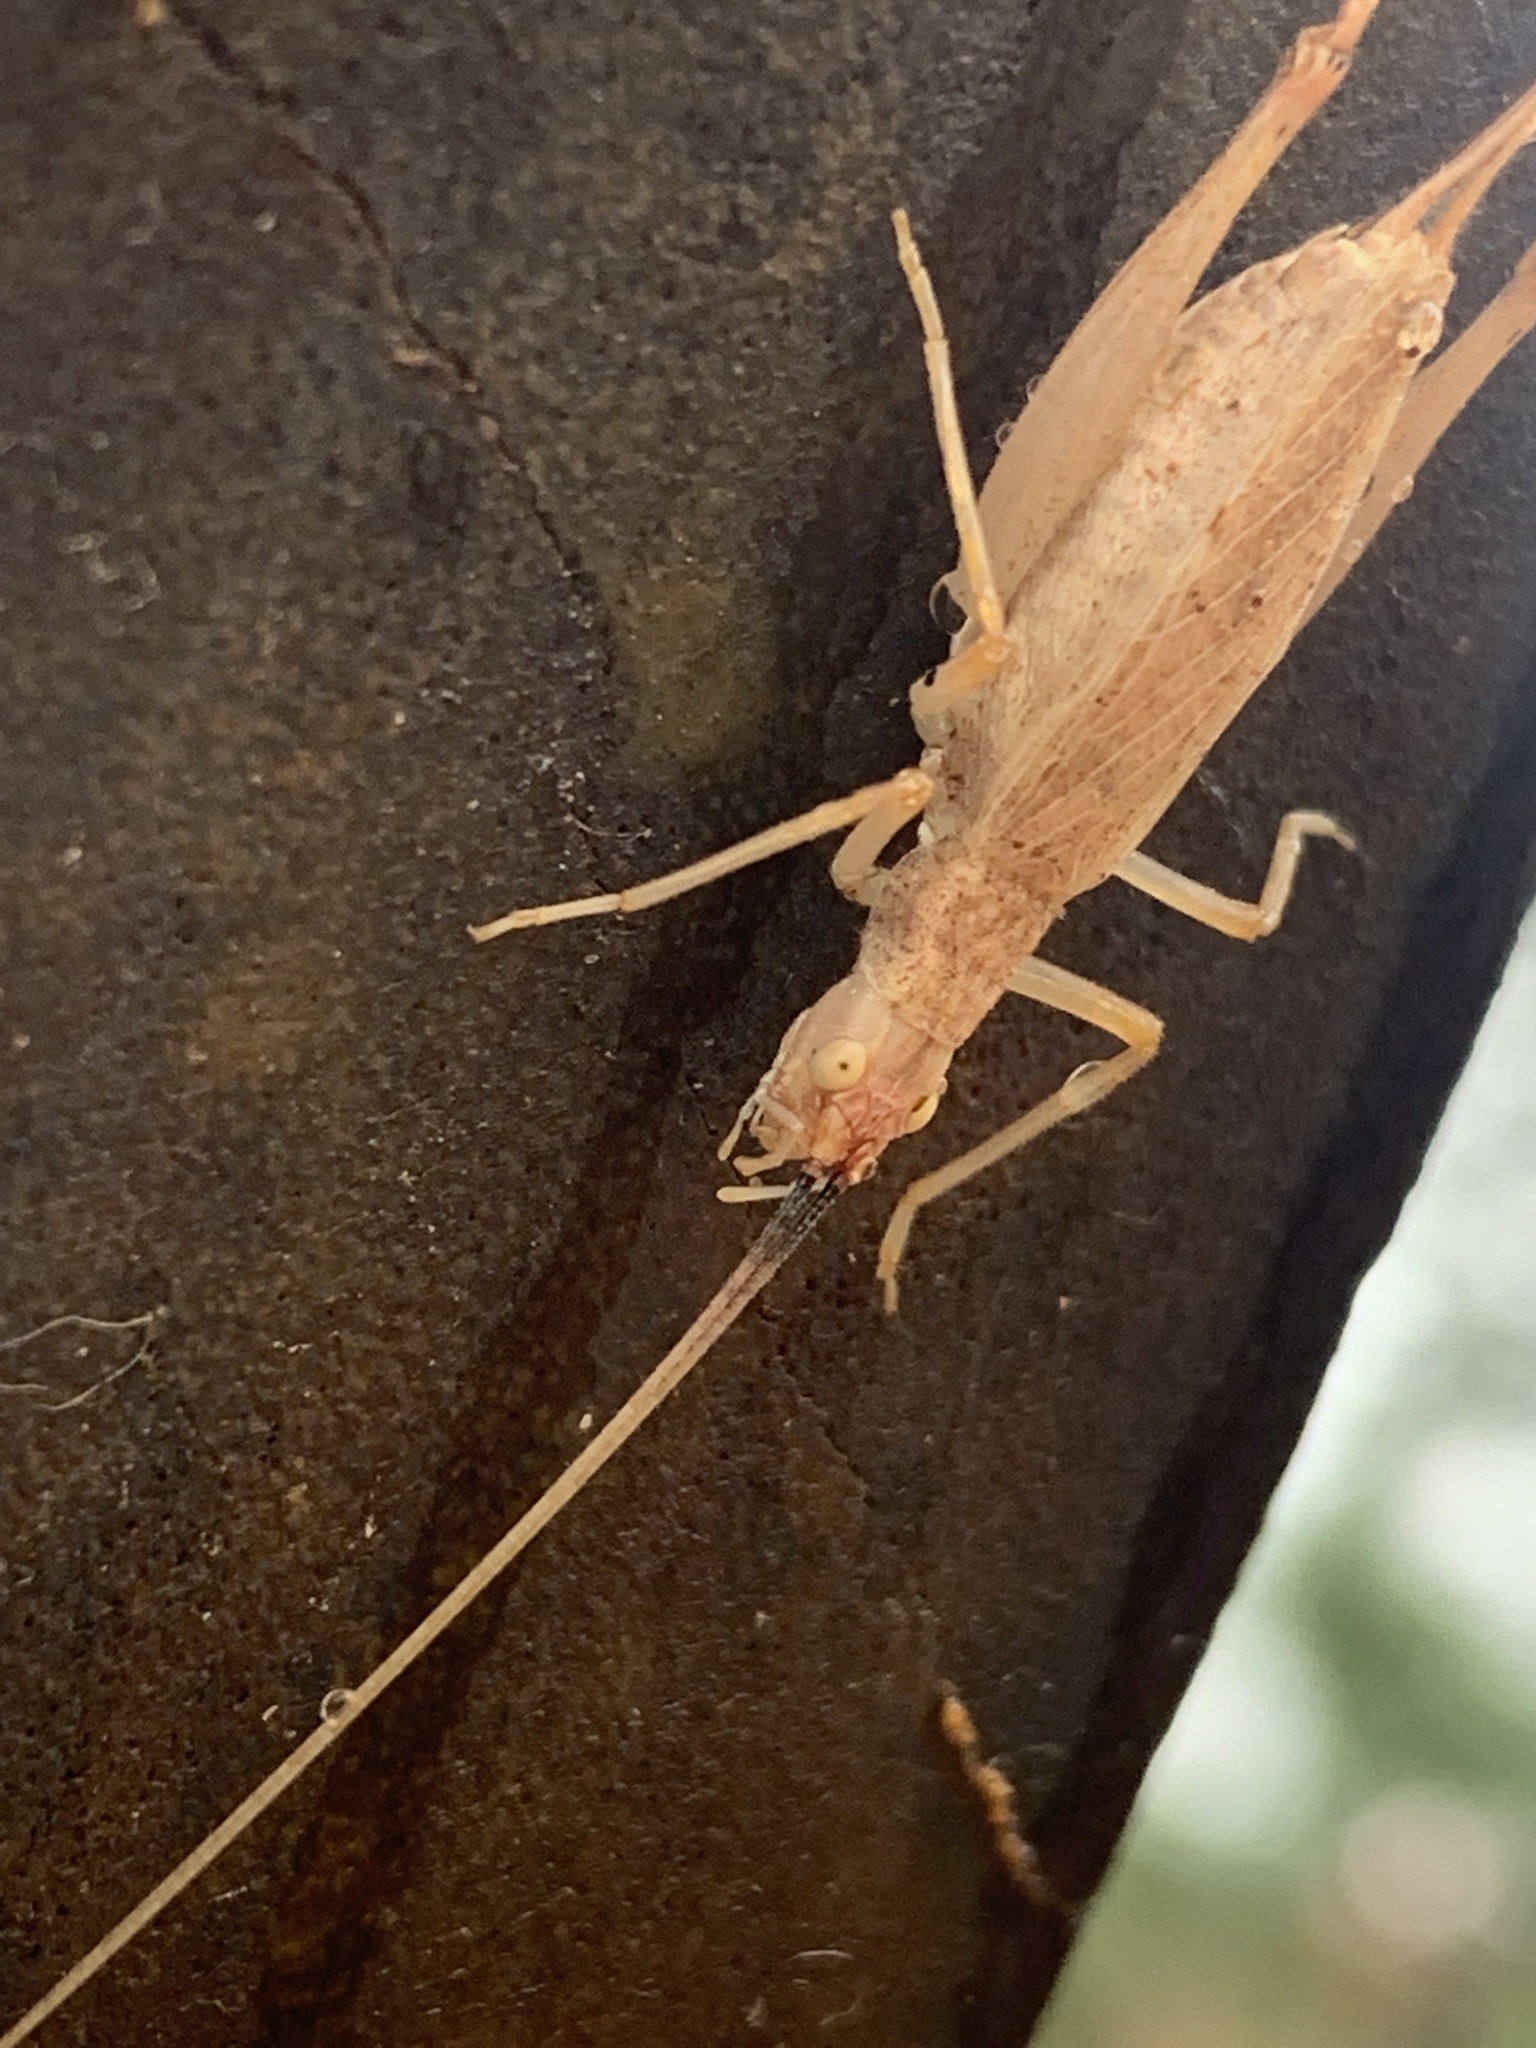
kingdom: Animalia
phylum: Arthropoda
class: Insecta
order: Orthoptera
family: Gryllidae
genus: Oecanthus
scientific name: Oecanthus californicus
